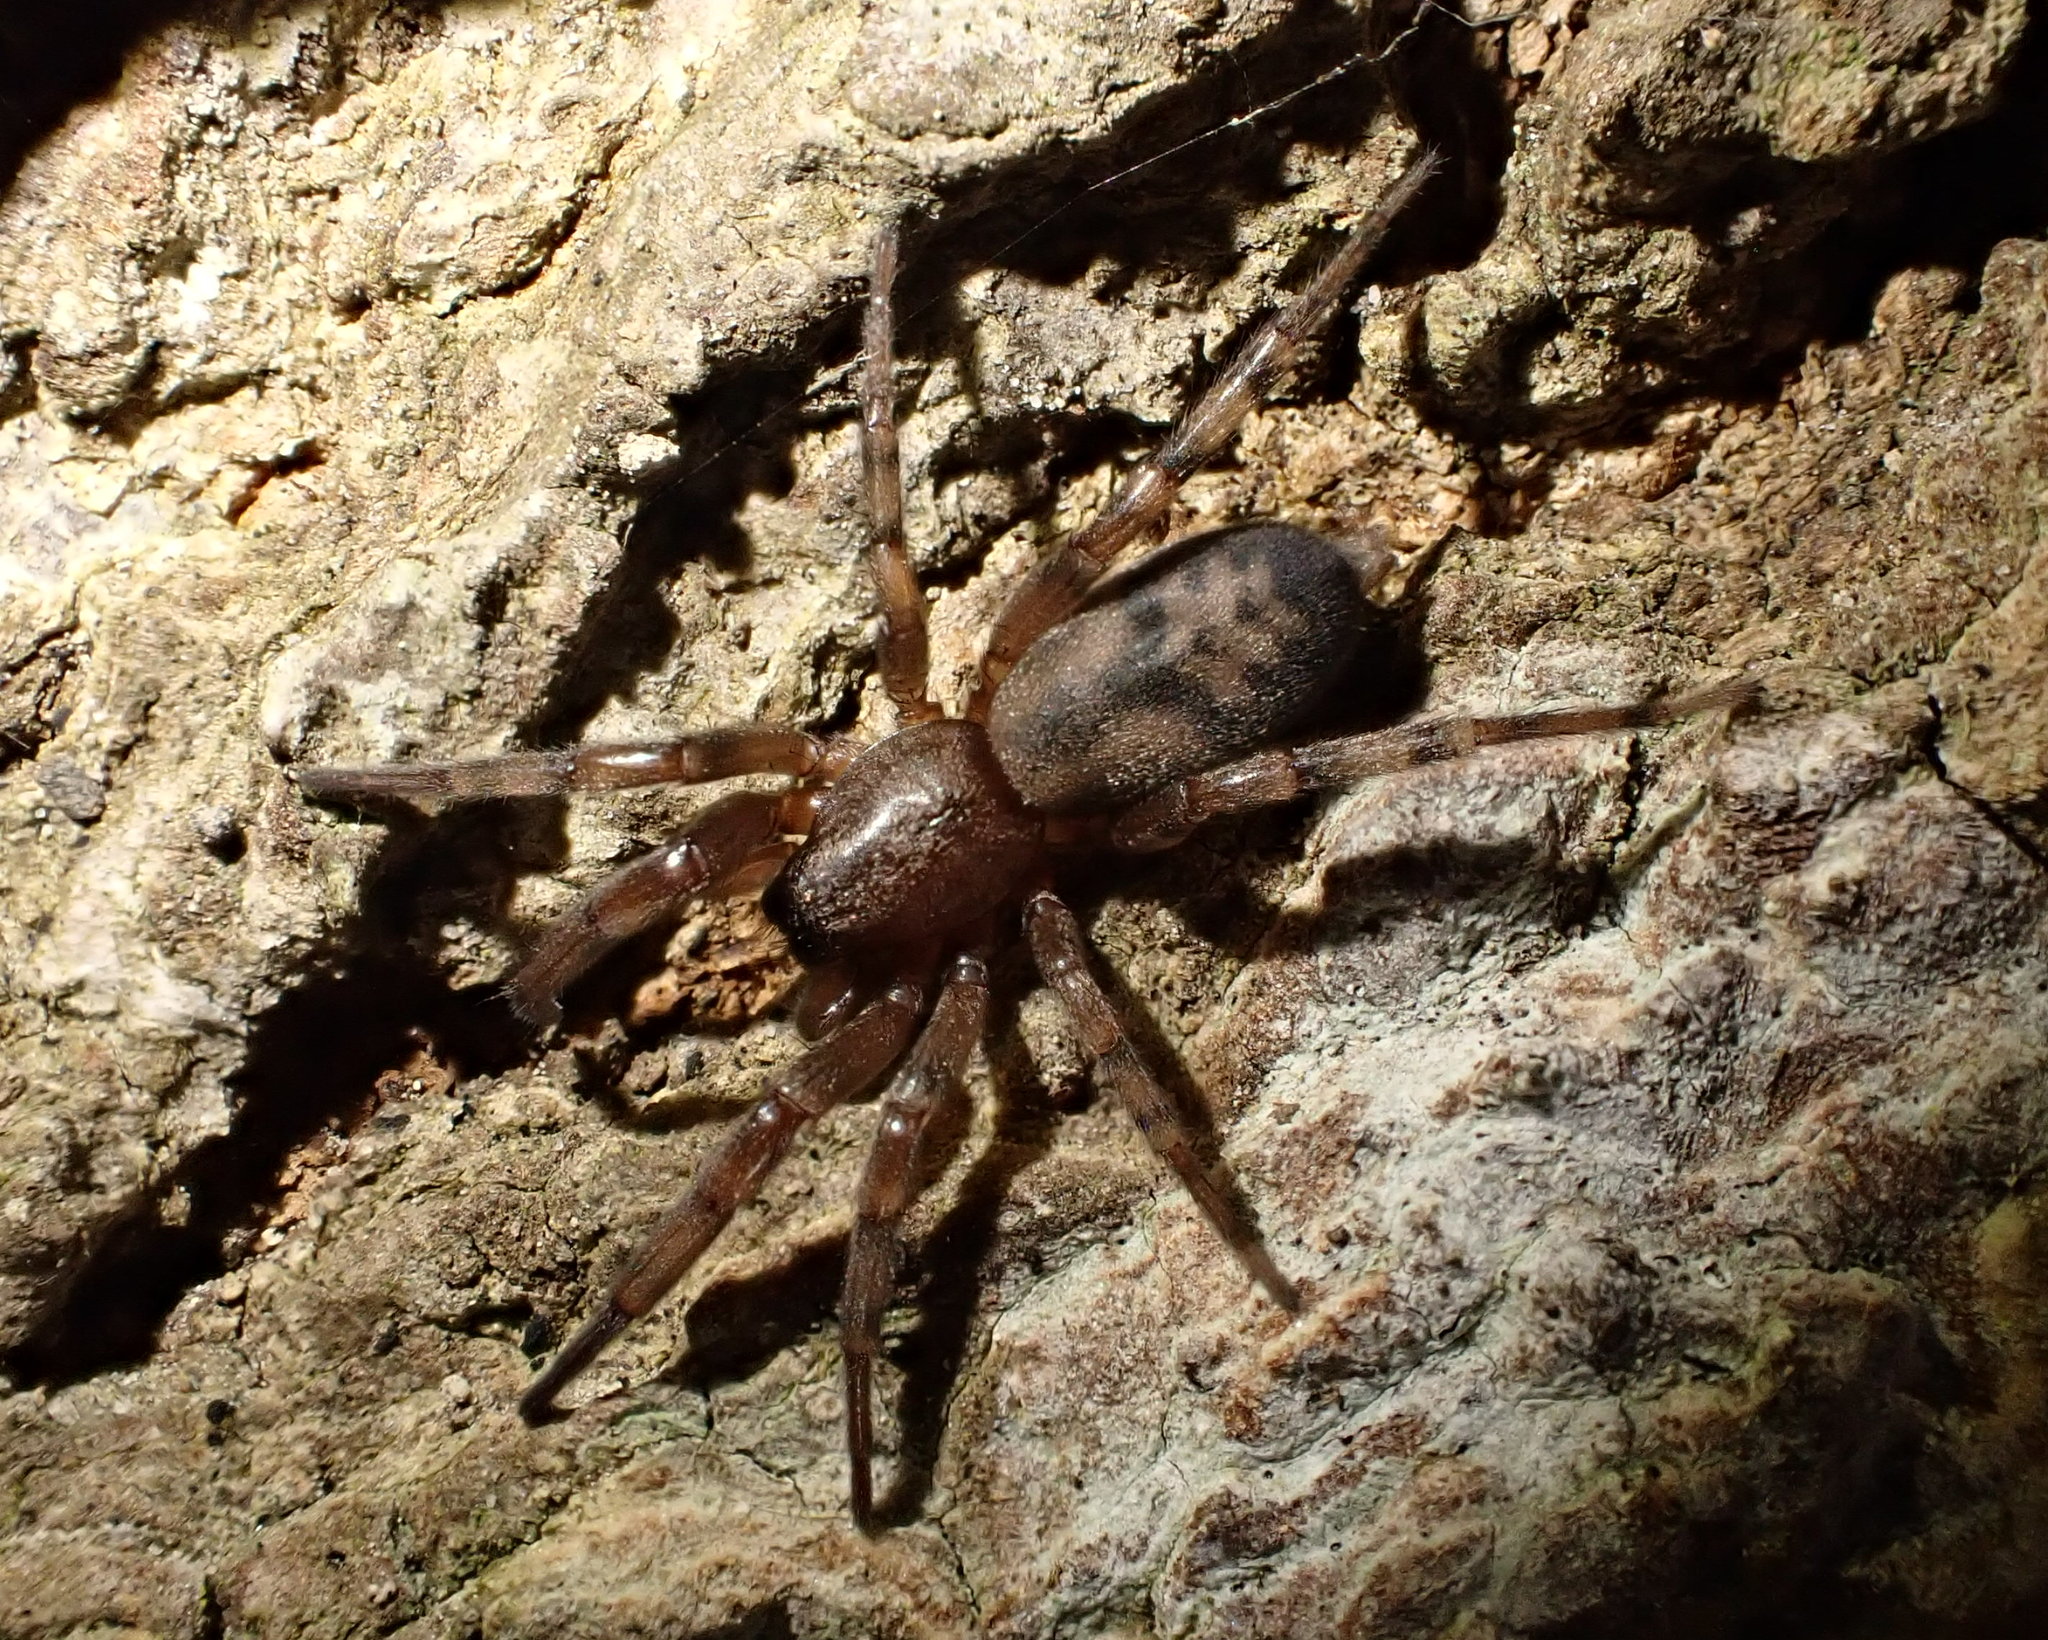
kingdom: Animalia
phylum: Arthropoda
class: Arachnida
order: Araneae
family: Gnaphosidae
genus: Intruda
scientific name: Intruda signata
